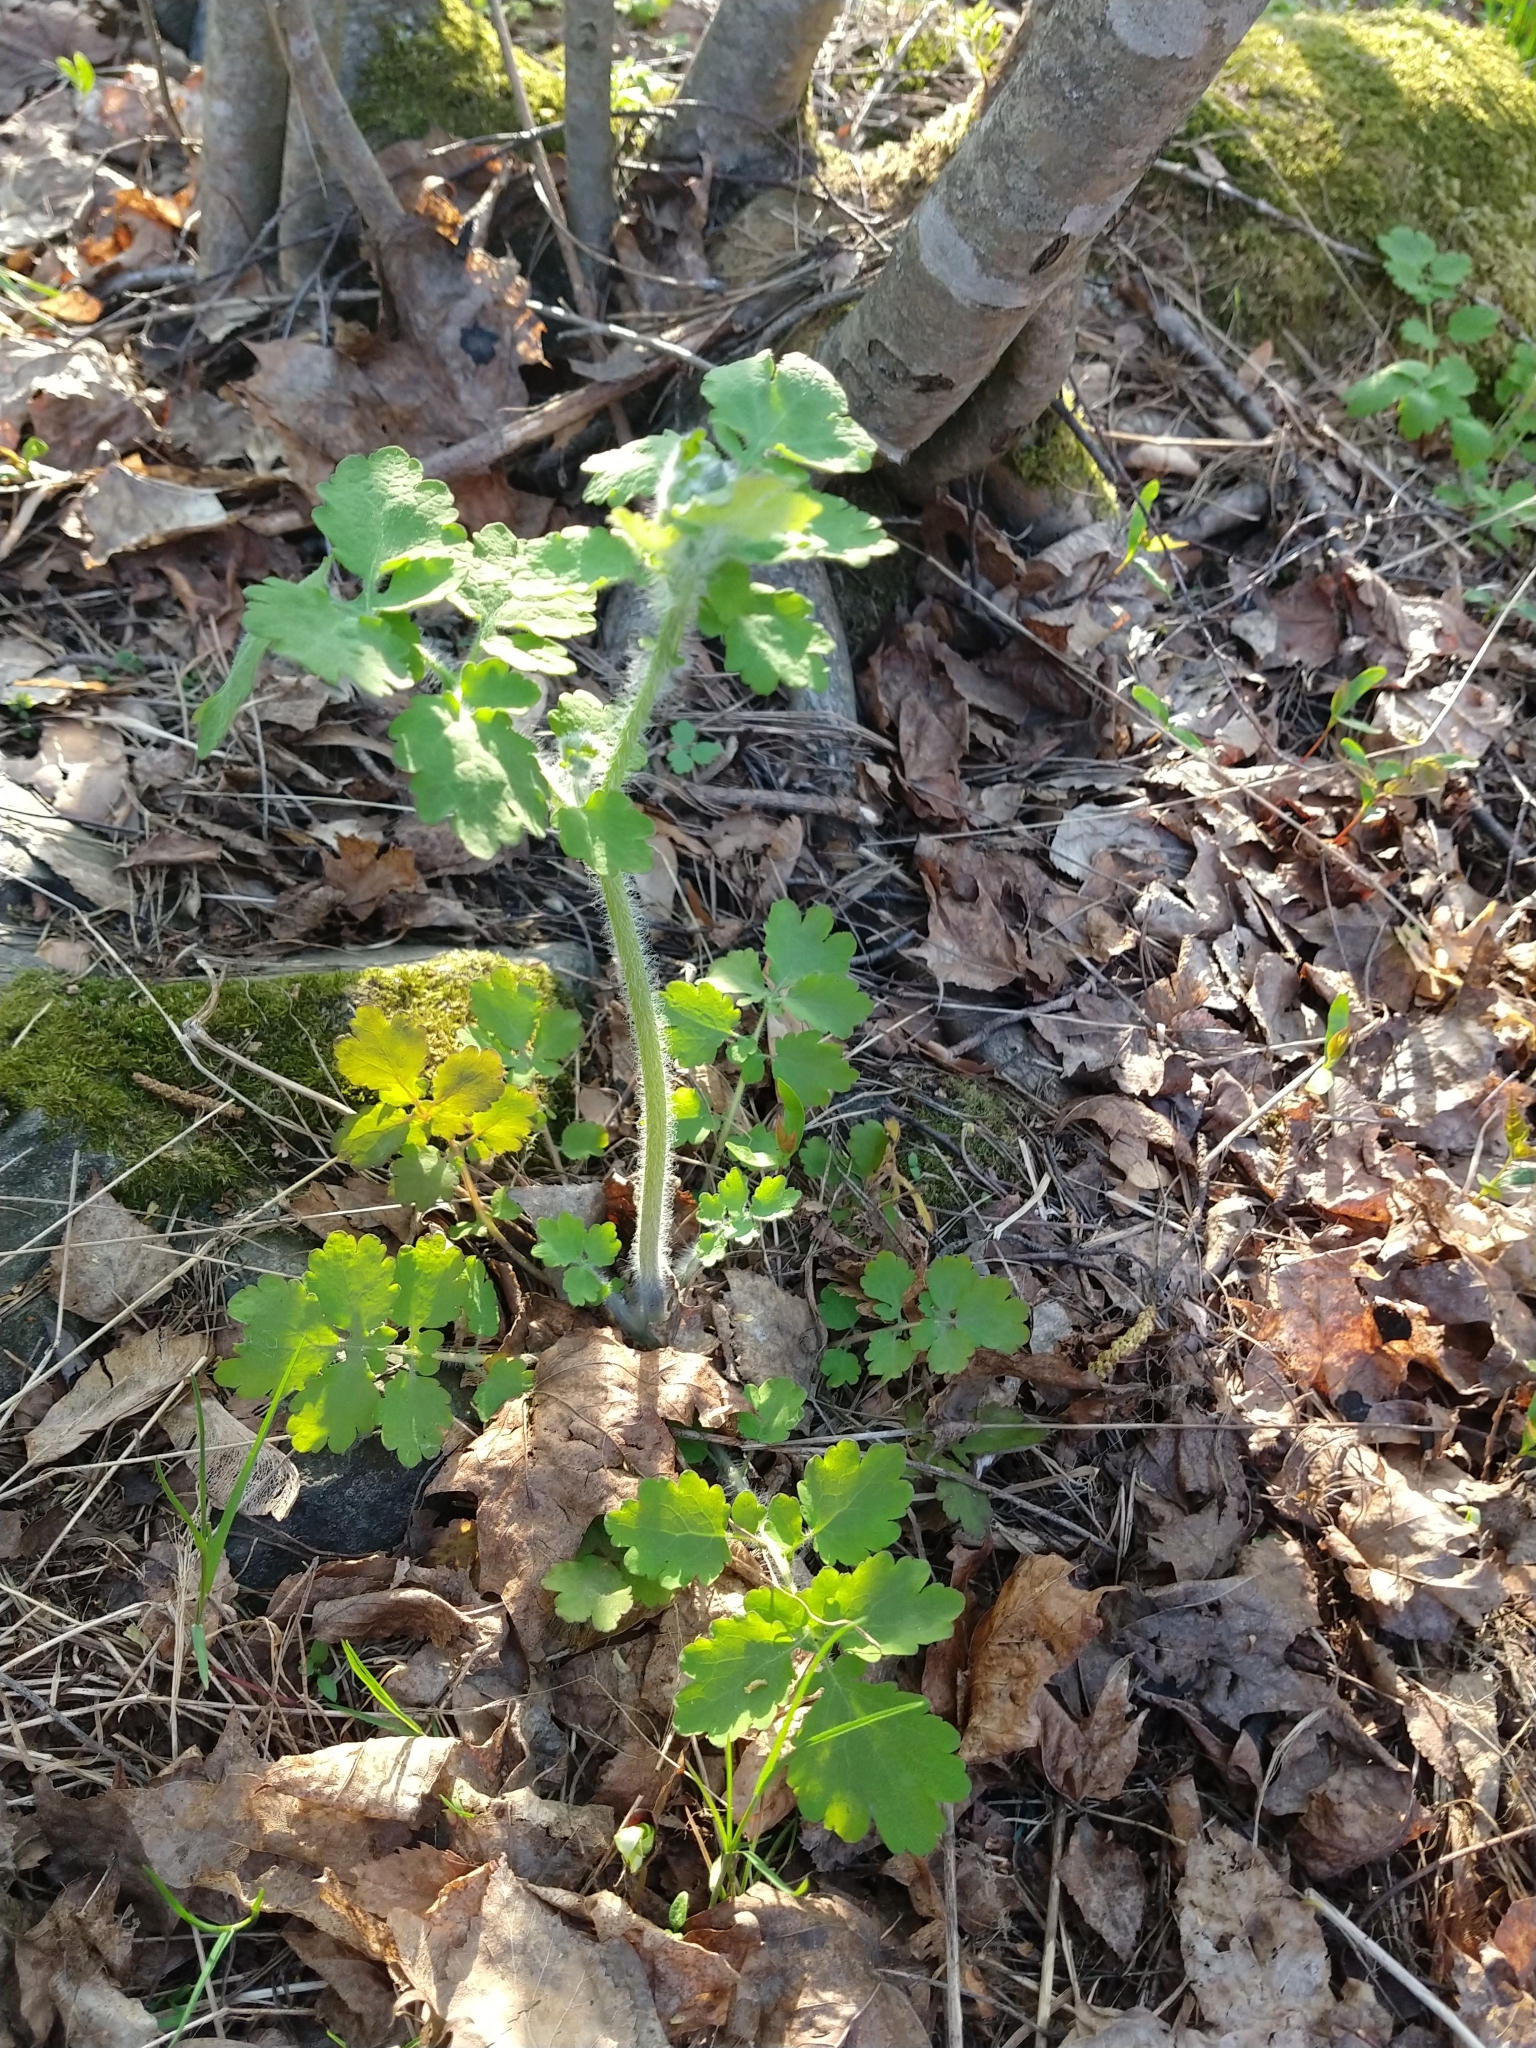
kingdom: Plantae
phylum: Tracheophyta
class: Magnoliopsida
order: Ranunculales
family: Papaveraceae
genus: Chelidonium
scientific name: Chelidonium majus
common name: Greater celandine
